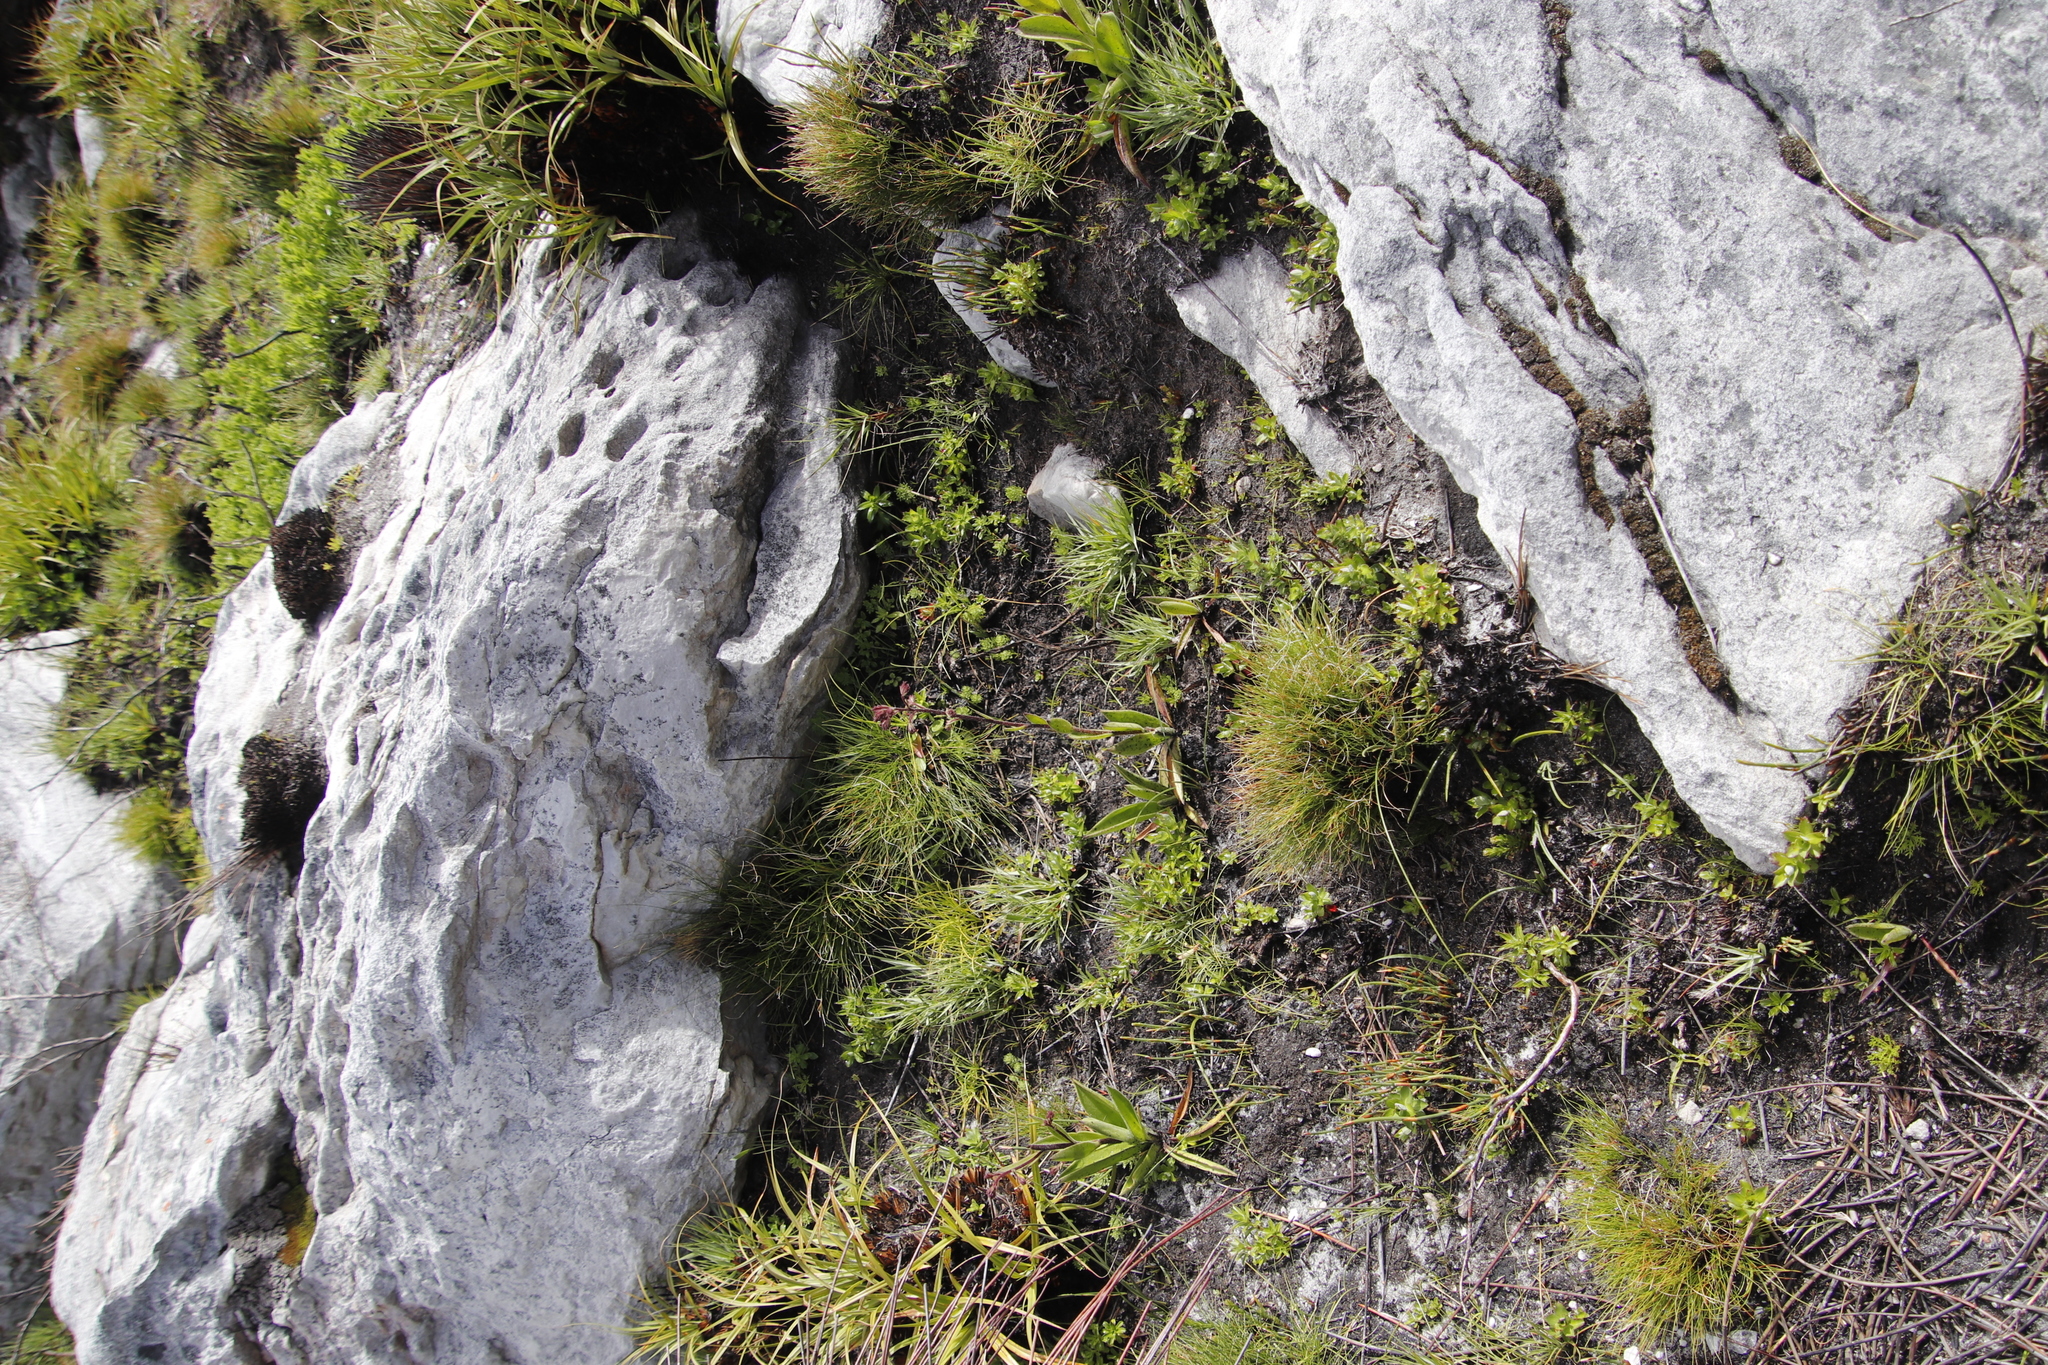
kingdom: Plantae
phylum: Tracheophyta
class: Magnoliopsida
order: Asterales
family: Asteraceae
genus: Corymbium
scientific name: Corymbium congestum
